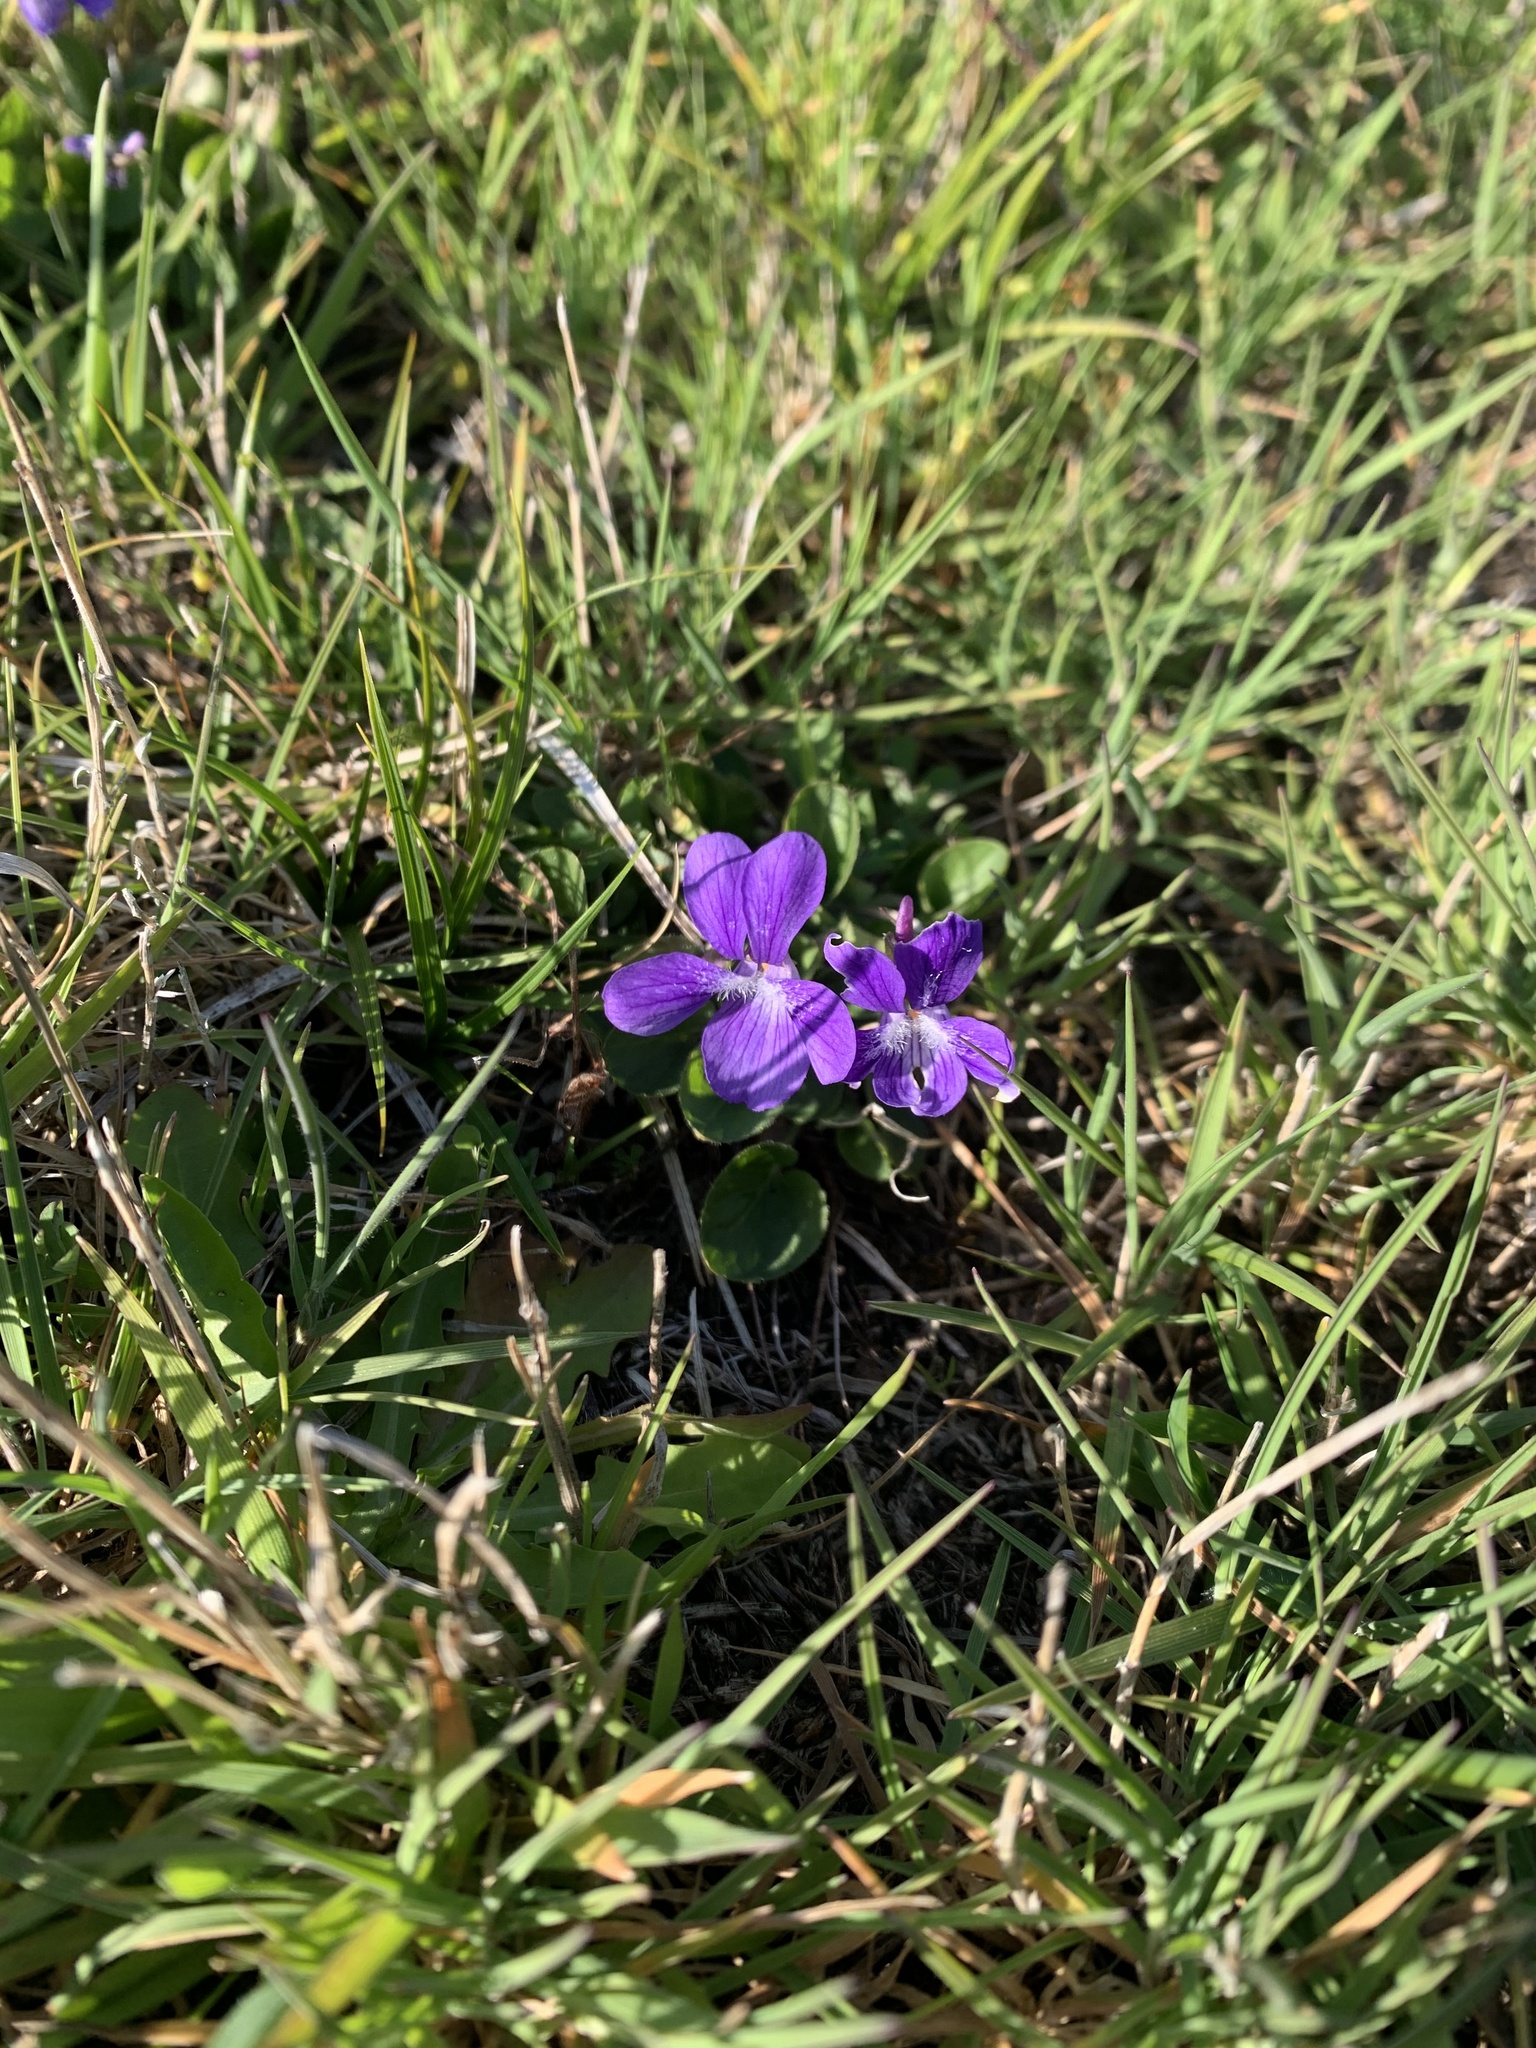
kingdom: Plantae
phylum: Tracheophyta
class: Magnoliopsida
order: Malpighiales
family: Violaceae
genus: Viola
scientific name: Viola adunca
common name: Sand violet
